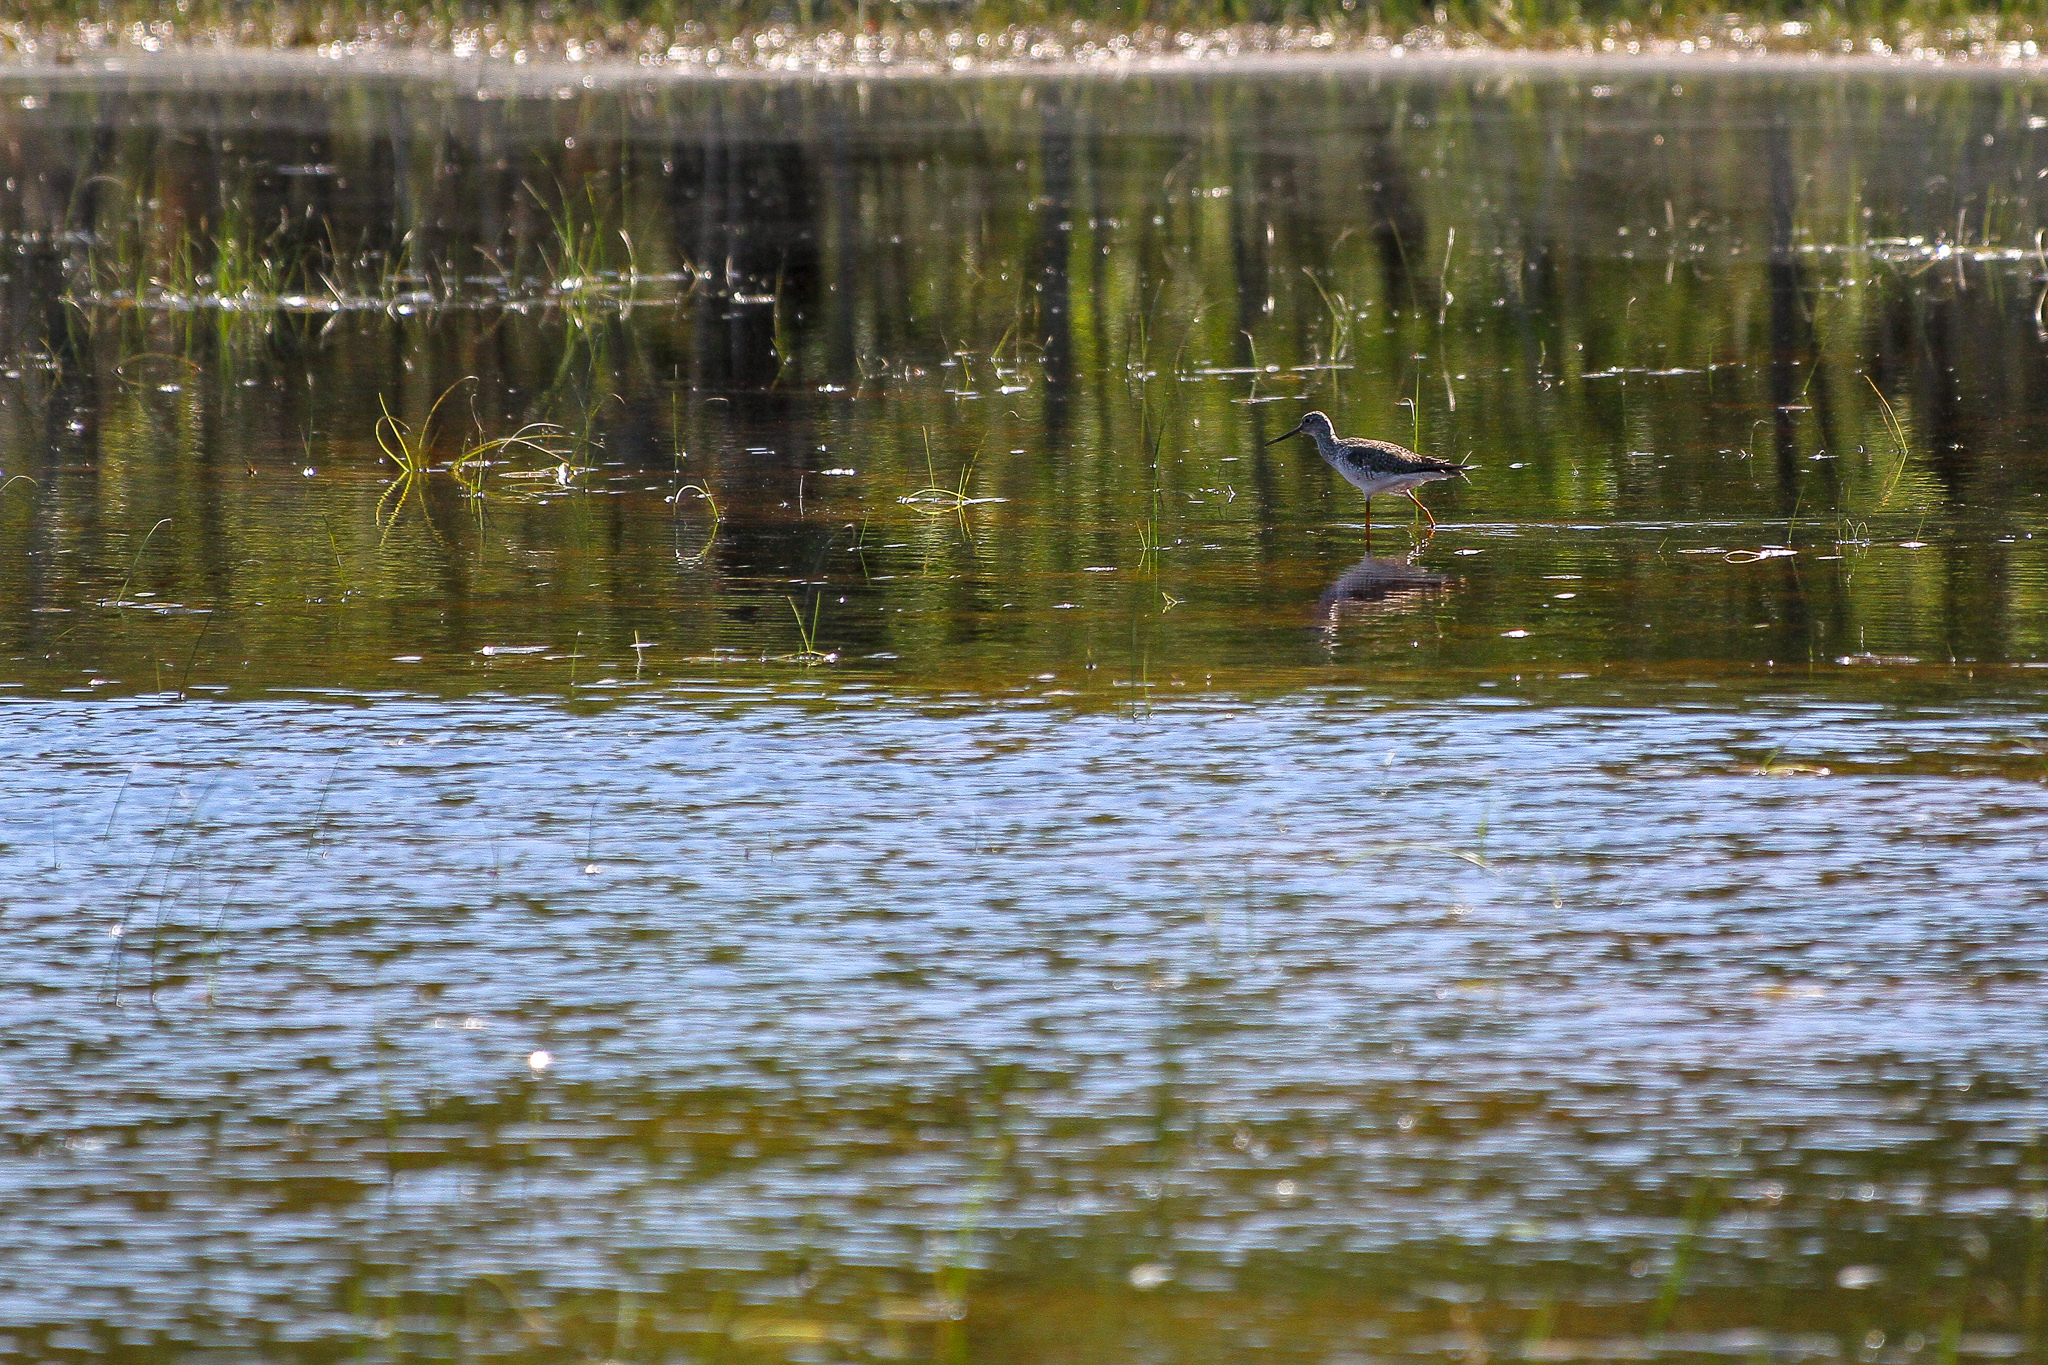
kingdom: Animalia
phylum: Chordata
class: Aves
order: Charadriiformes
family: Scolopacidae
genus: Tringa
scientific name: Tringa melanoleuca
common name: Greater yellowlegs
